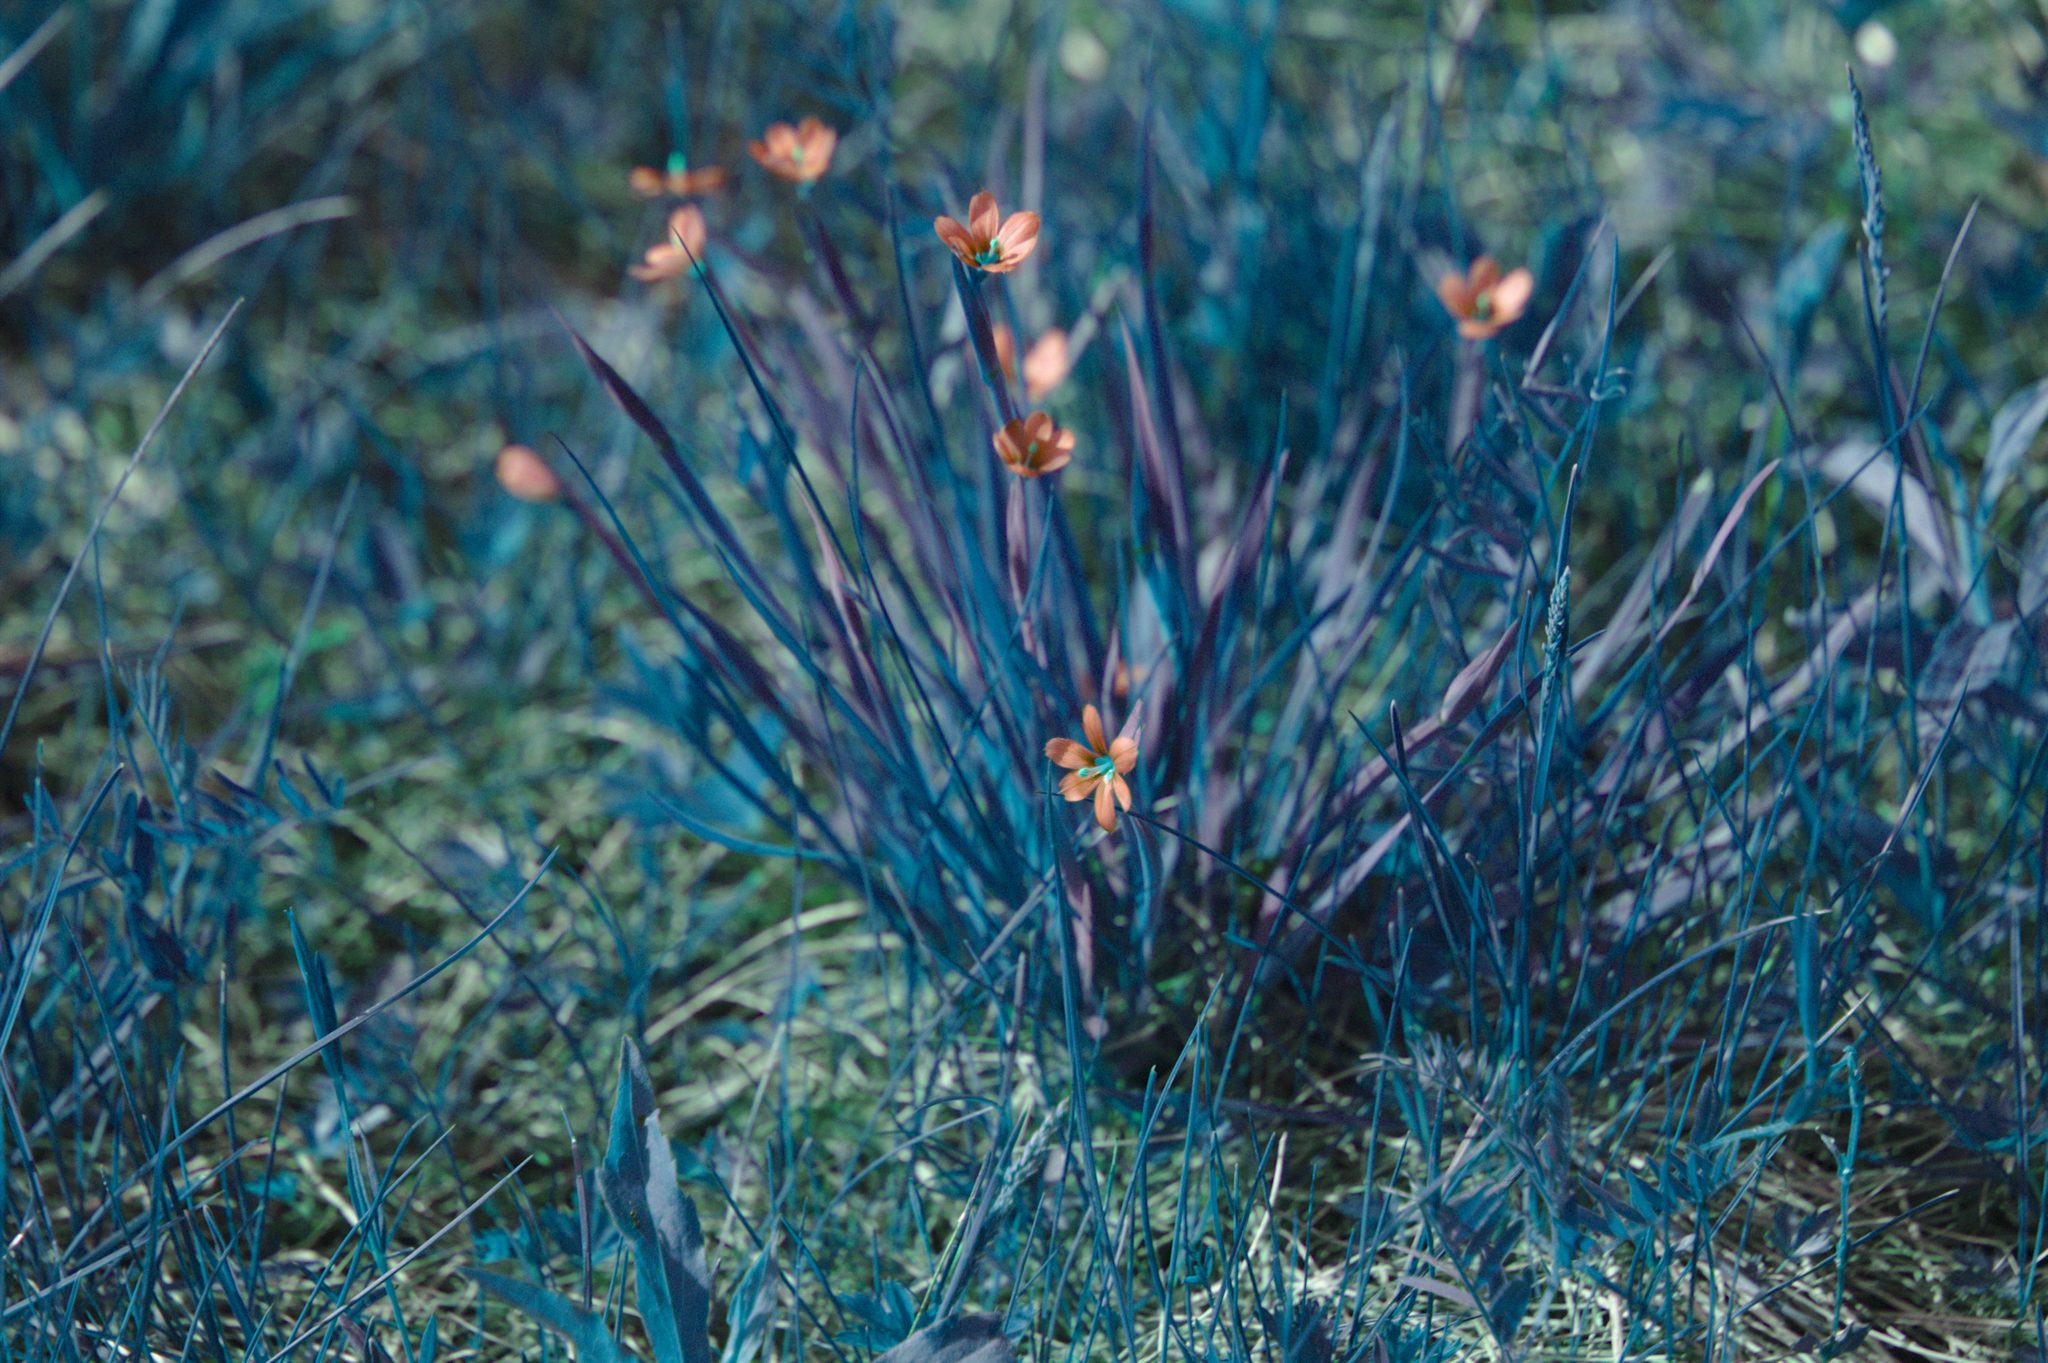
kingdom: Plantae
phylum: Tracheophyta
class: Liliopsida
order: Asparagales
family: Iridaceae
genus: Sisyrinchium
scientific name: Sisyrinchium montanum
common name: American blue-eyed-grass
